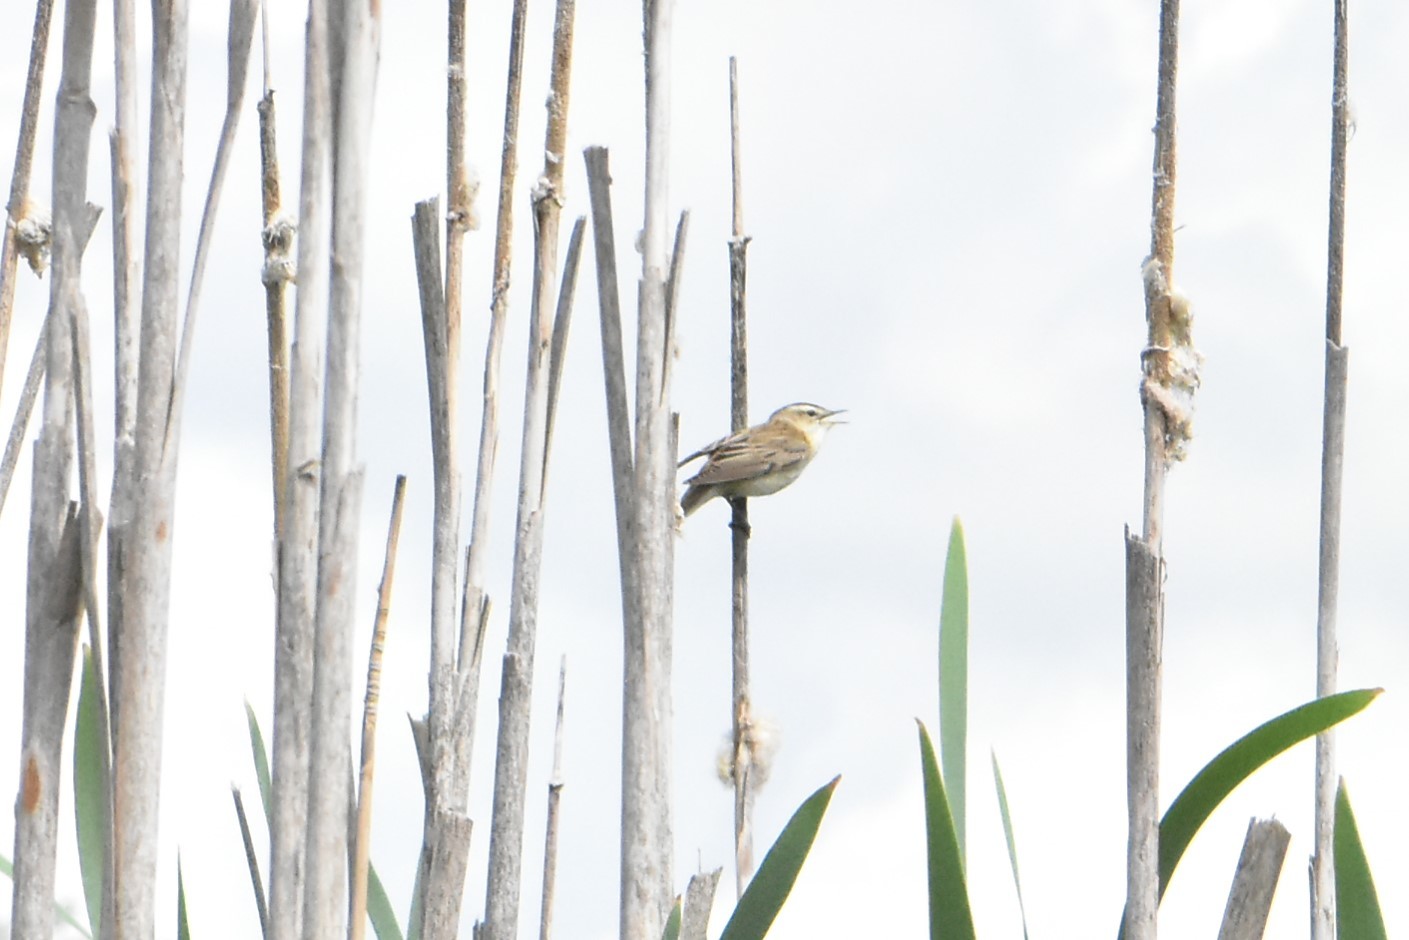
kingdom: Animalia
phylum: Chordata
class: Aves
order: Passeriformes
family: Acrocephalidae
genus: Acrocephalus
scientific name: Acrocephalus schoenobaenus
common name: Sedge warbler
